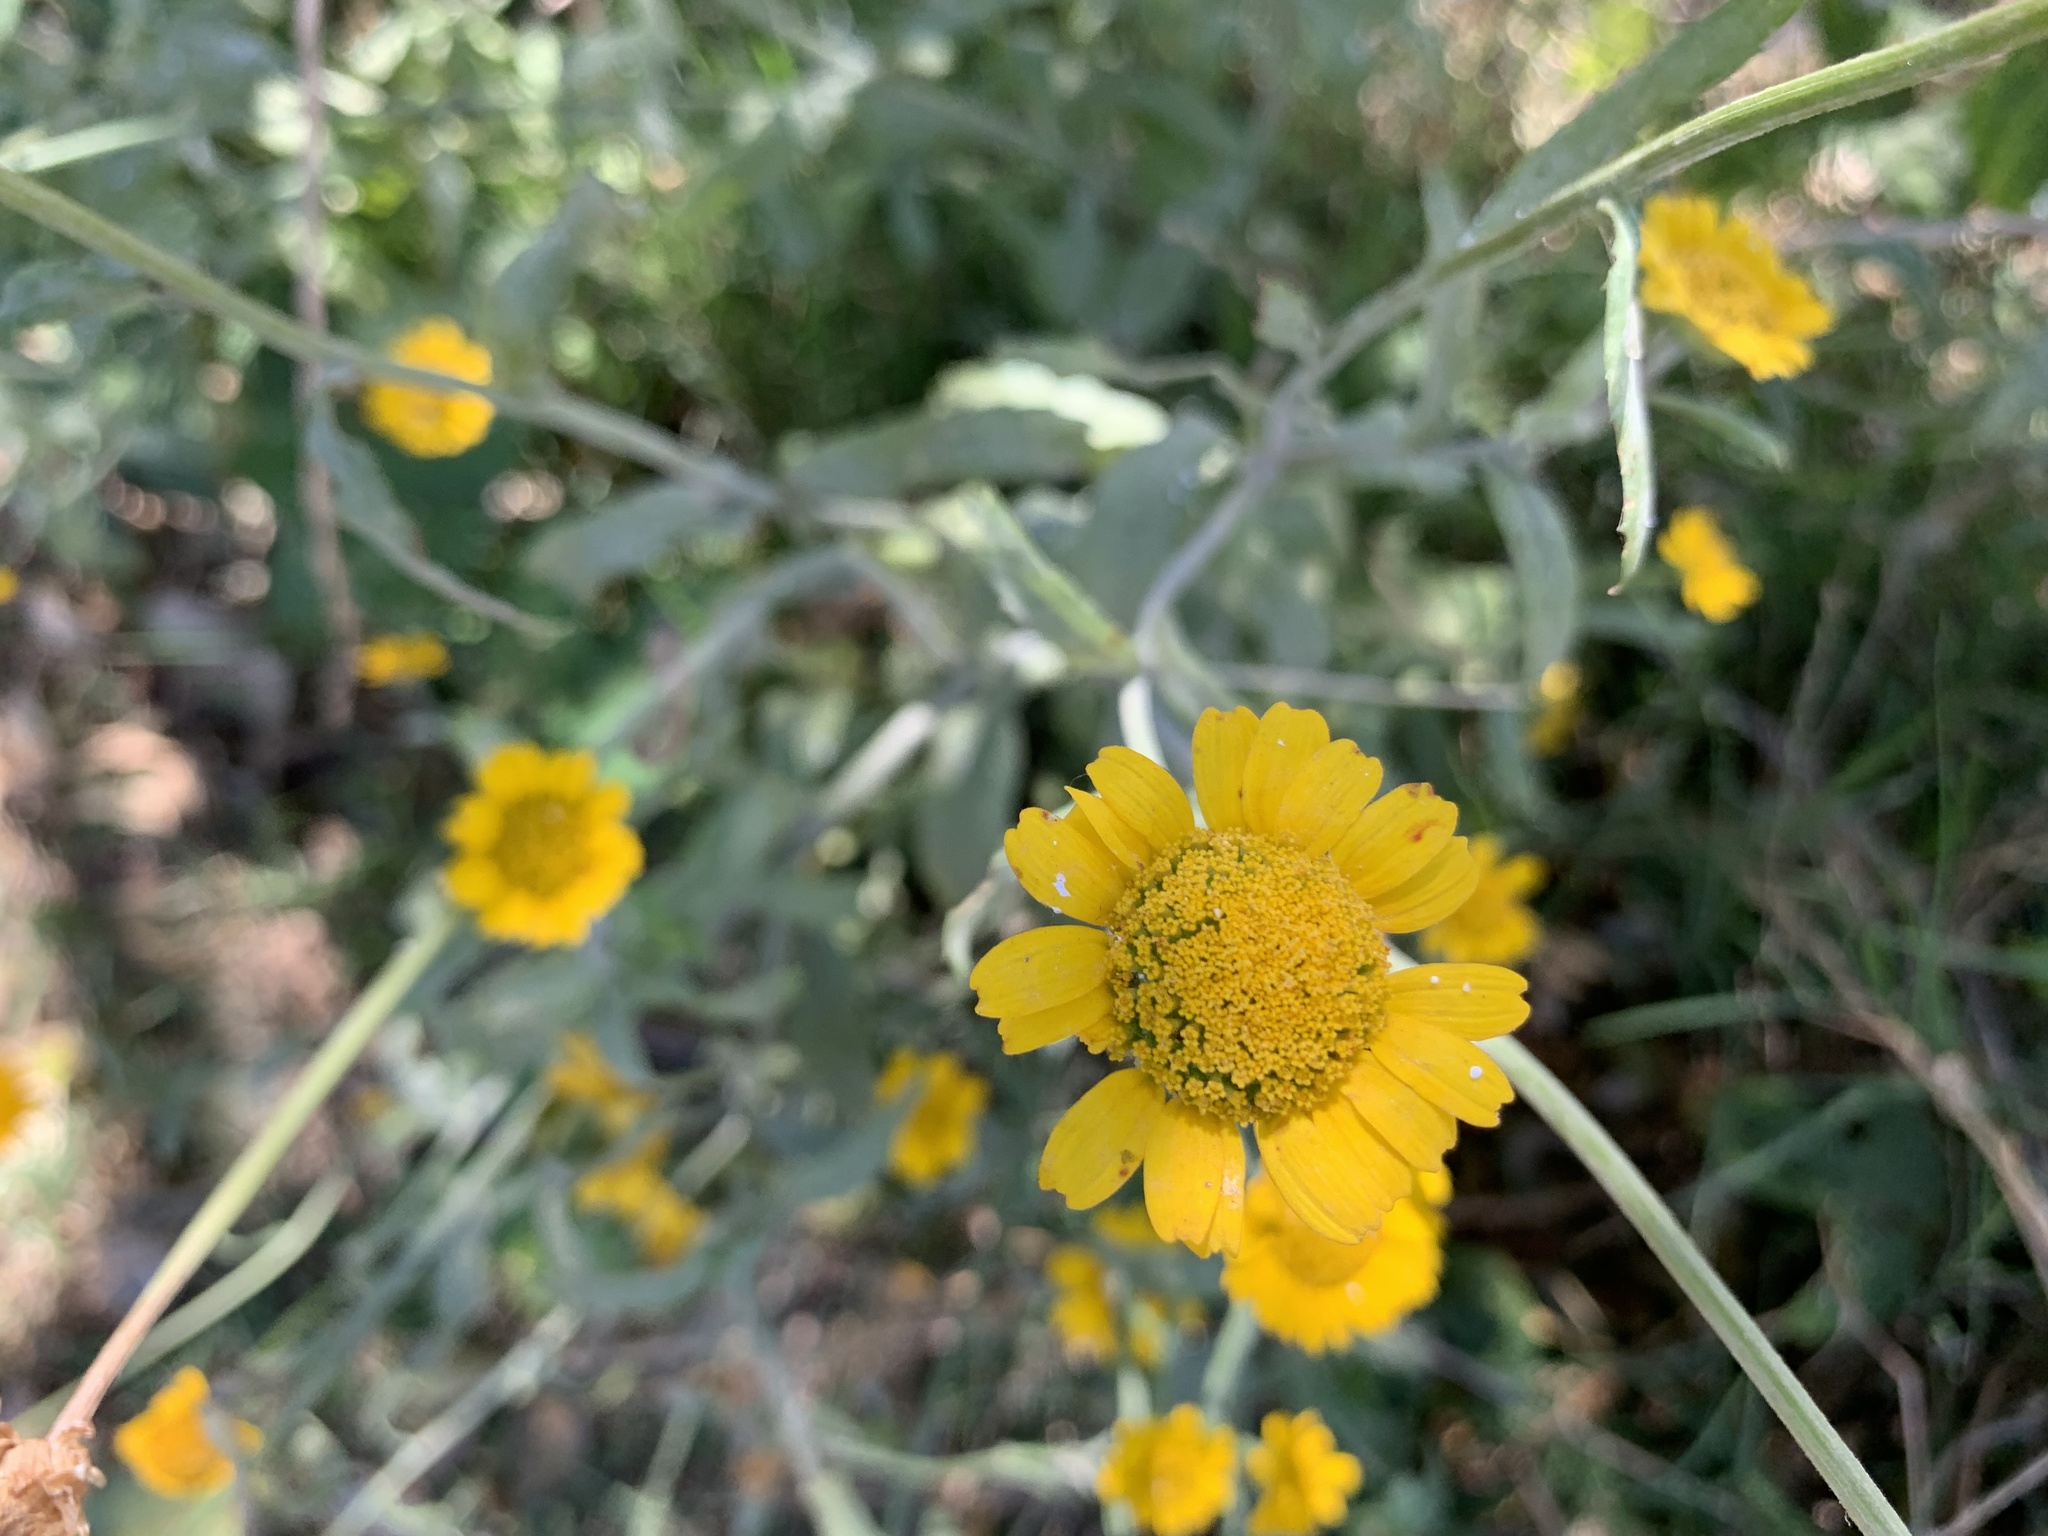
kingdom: Plantae
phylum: Tracheophyta
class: Magnoliopsida
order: Asterales
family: Asteraceae
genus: Coleostephus
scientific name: Coleostephus myconis
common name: Mediterranean marigold
